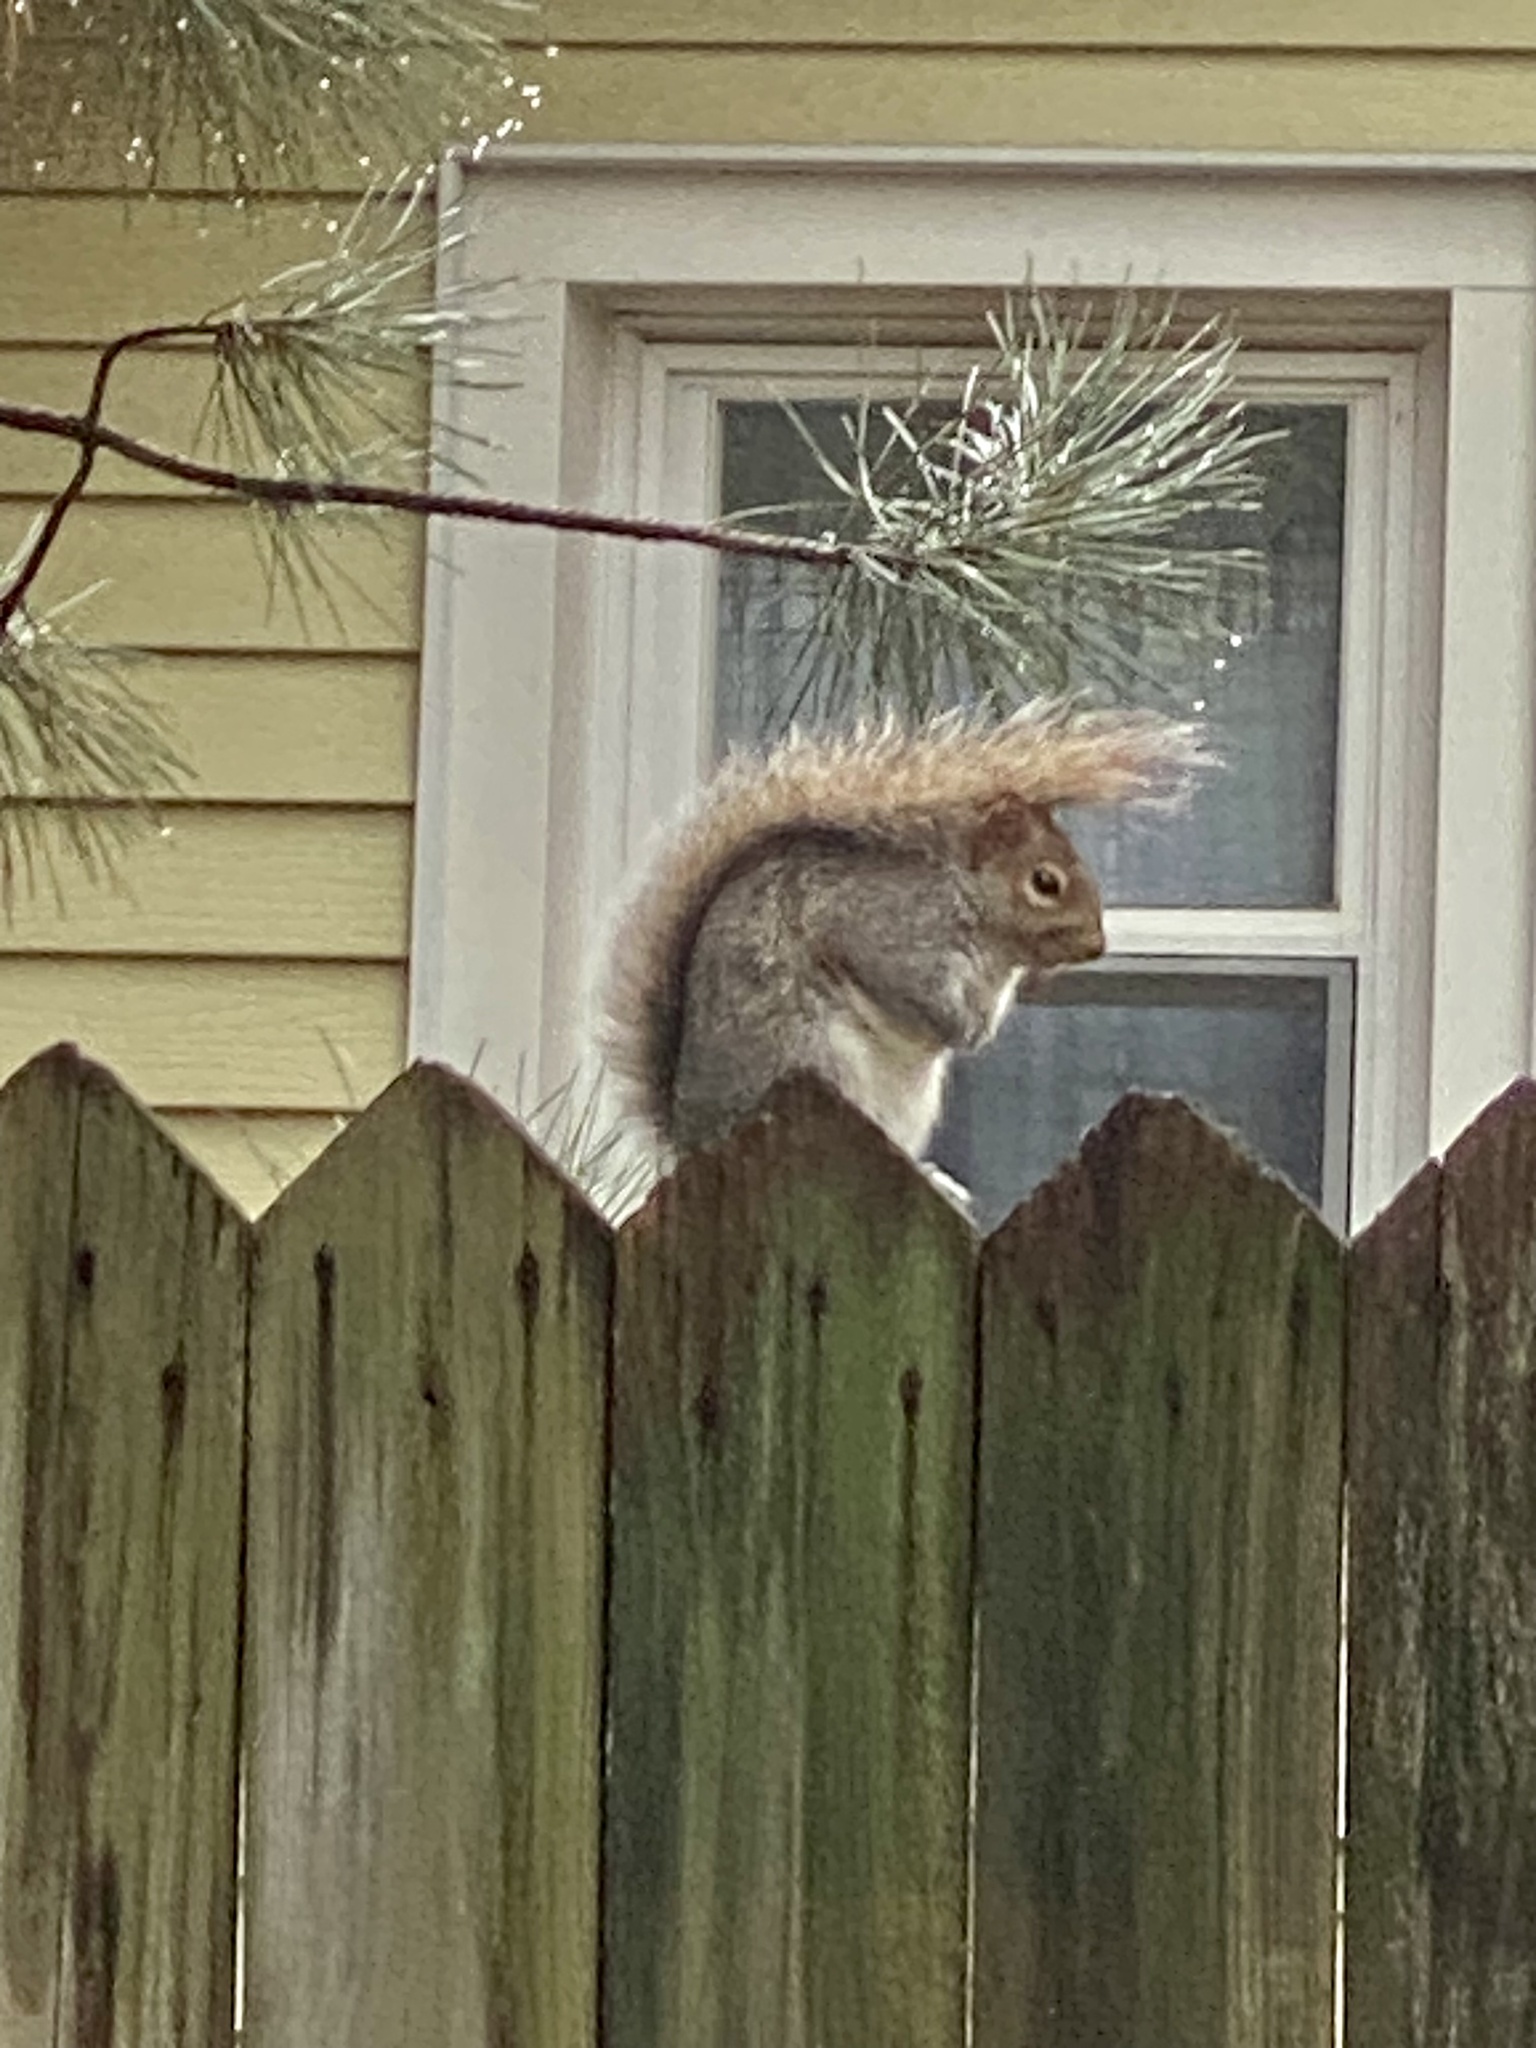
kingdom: Animalia
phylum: Chordata
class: Mammalia
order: Rodentia
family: Sciuridae
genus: Sciurus
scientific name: Sciurus carolinensis
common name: Eastern gray squirrel
